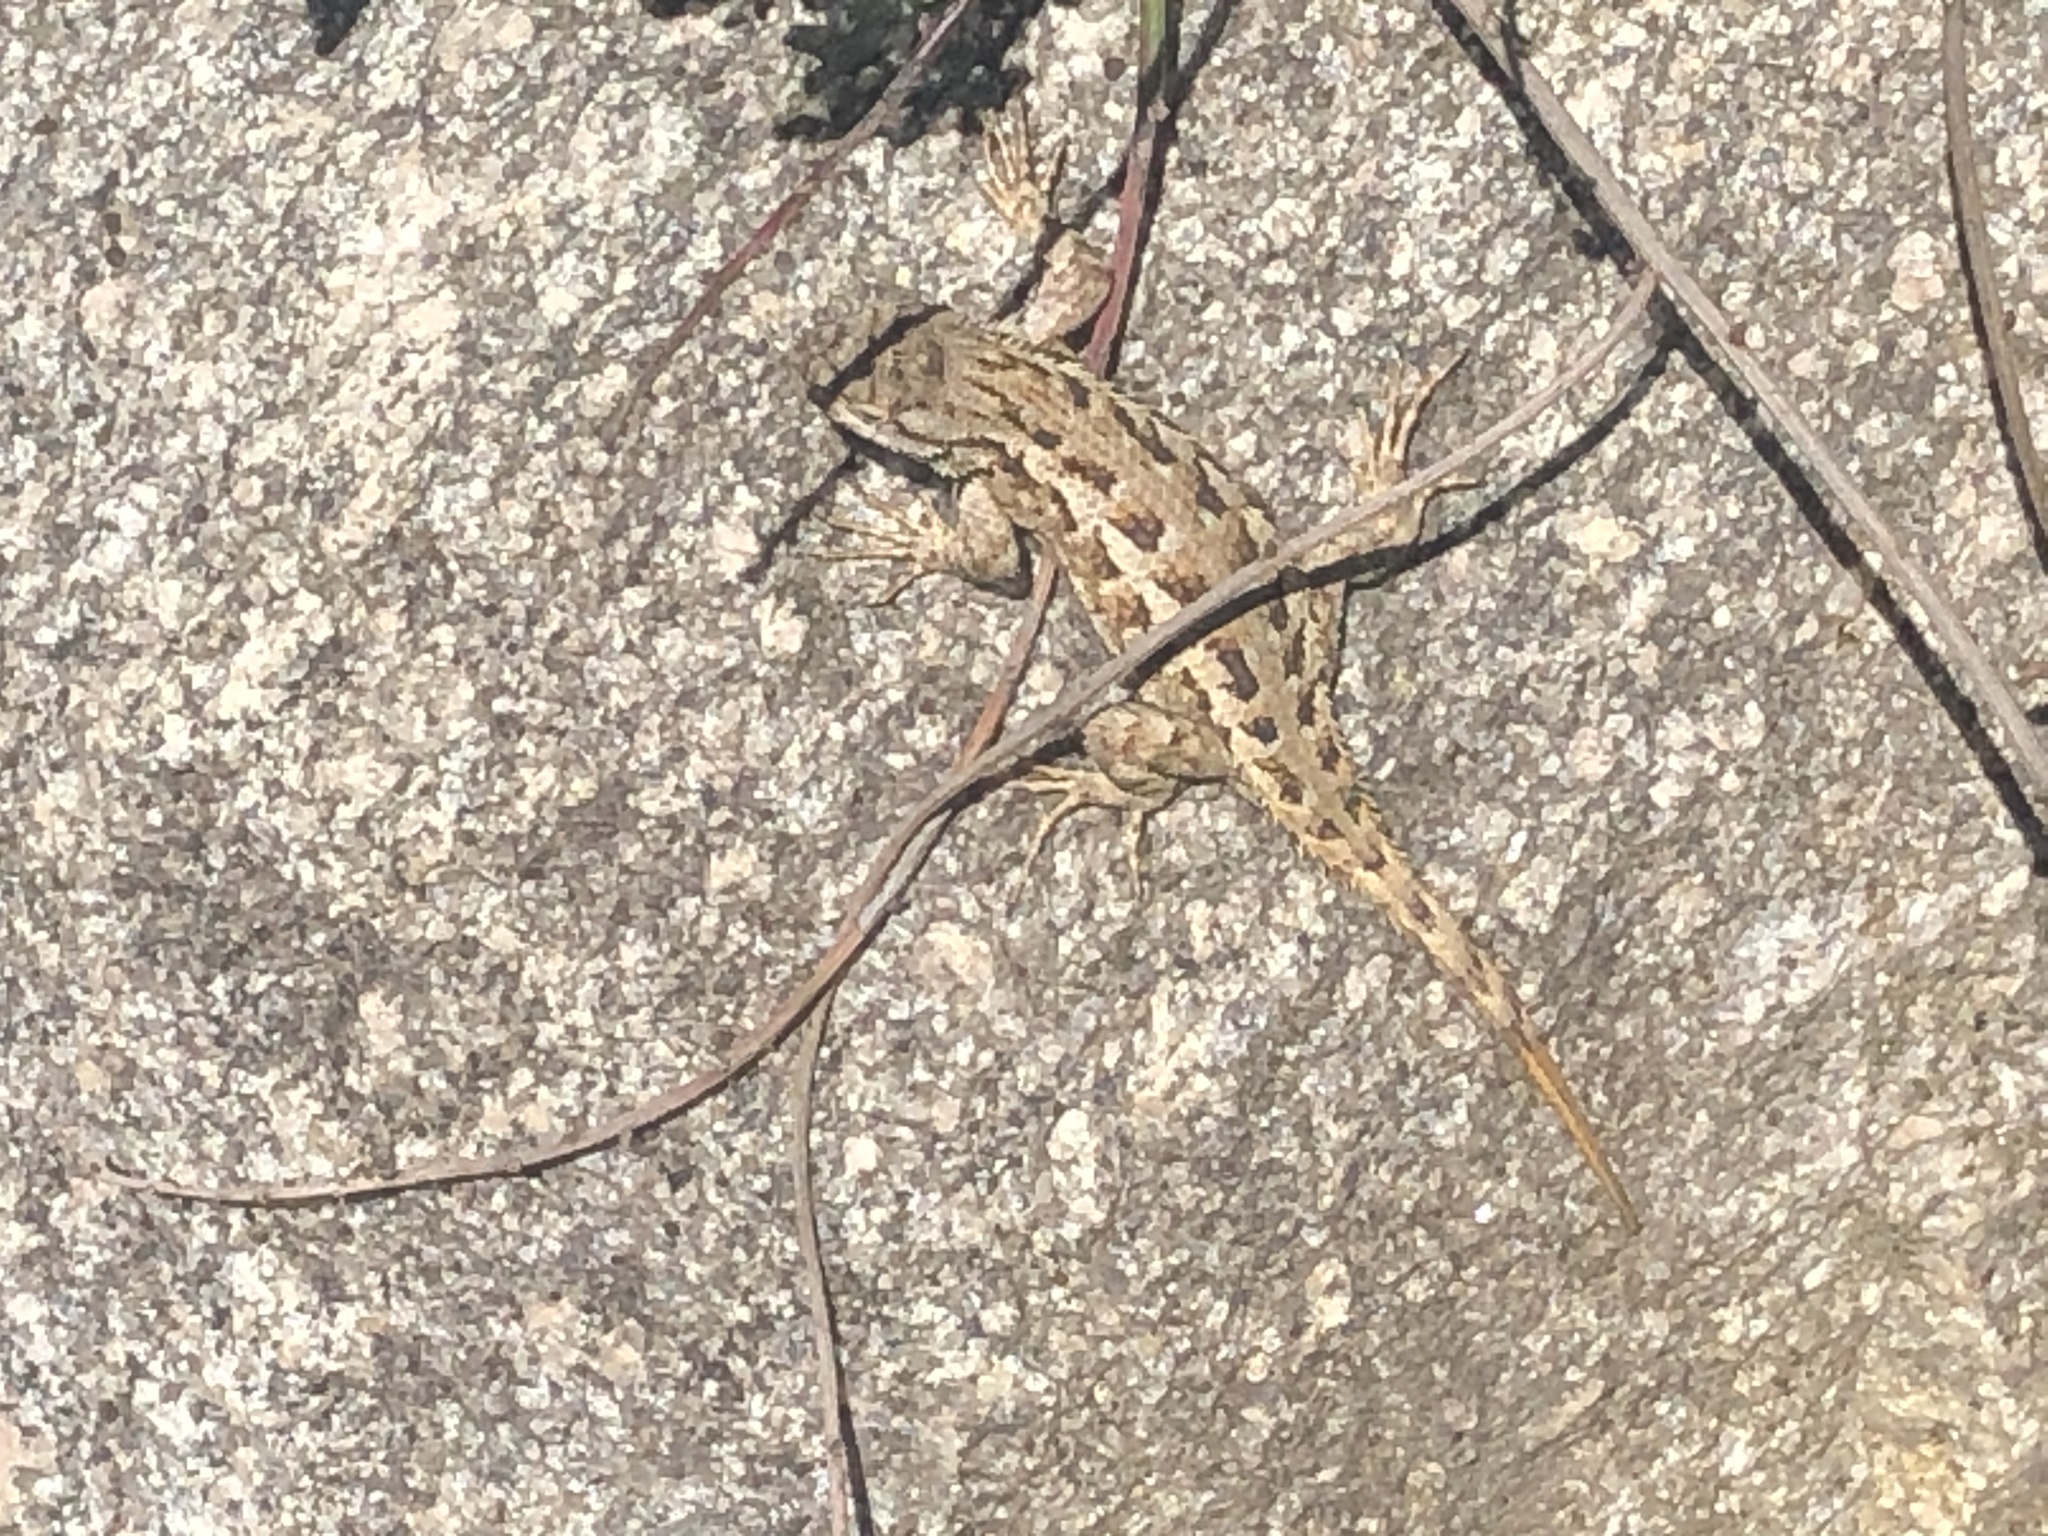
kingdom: Animalia
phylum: Chordata
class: Squamata
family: Phrynosomatidae
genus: Sceloporus
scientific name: Sceloporus occidentalis
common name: Western fence lizard
